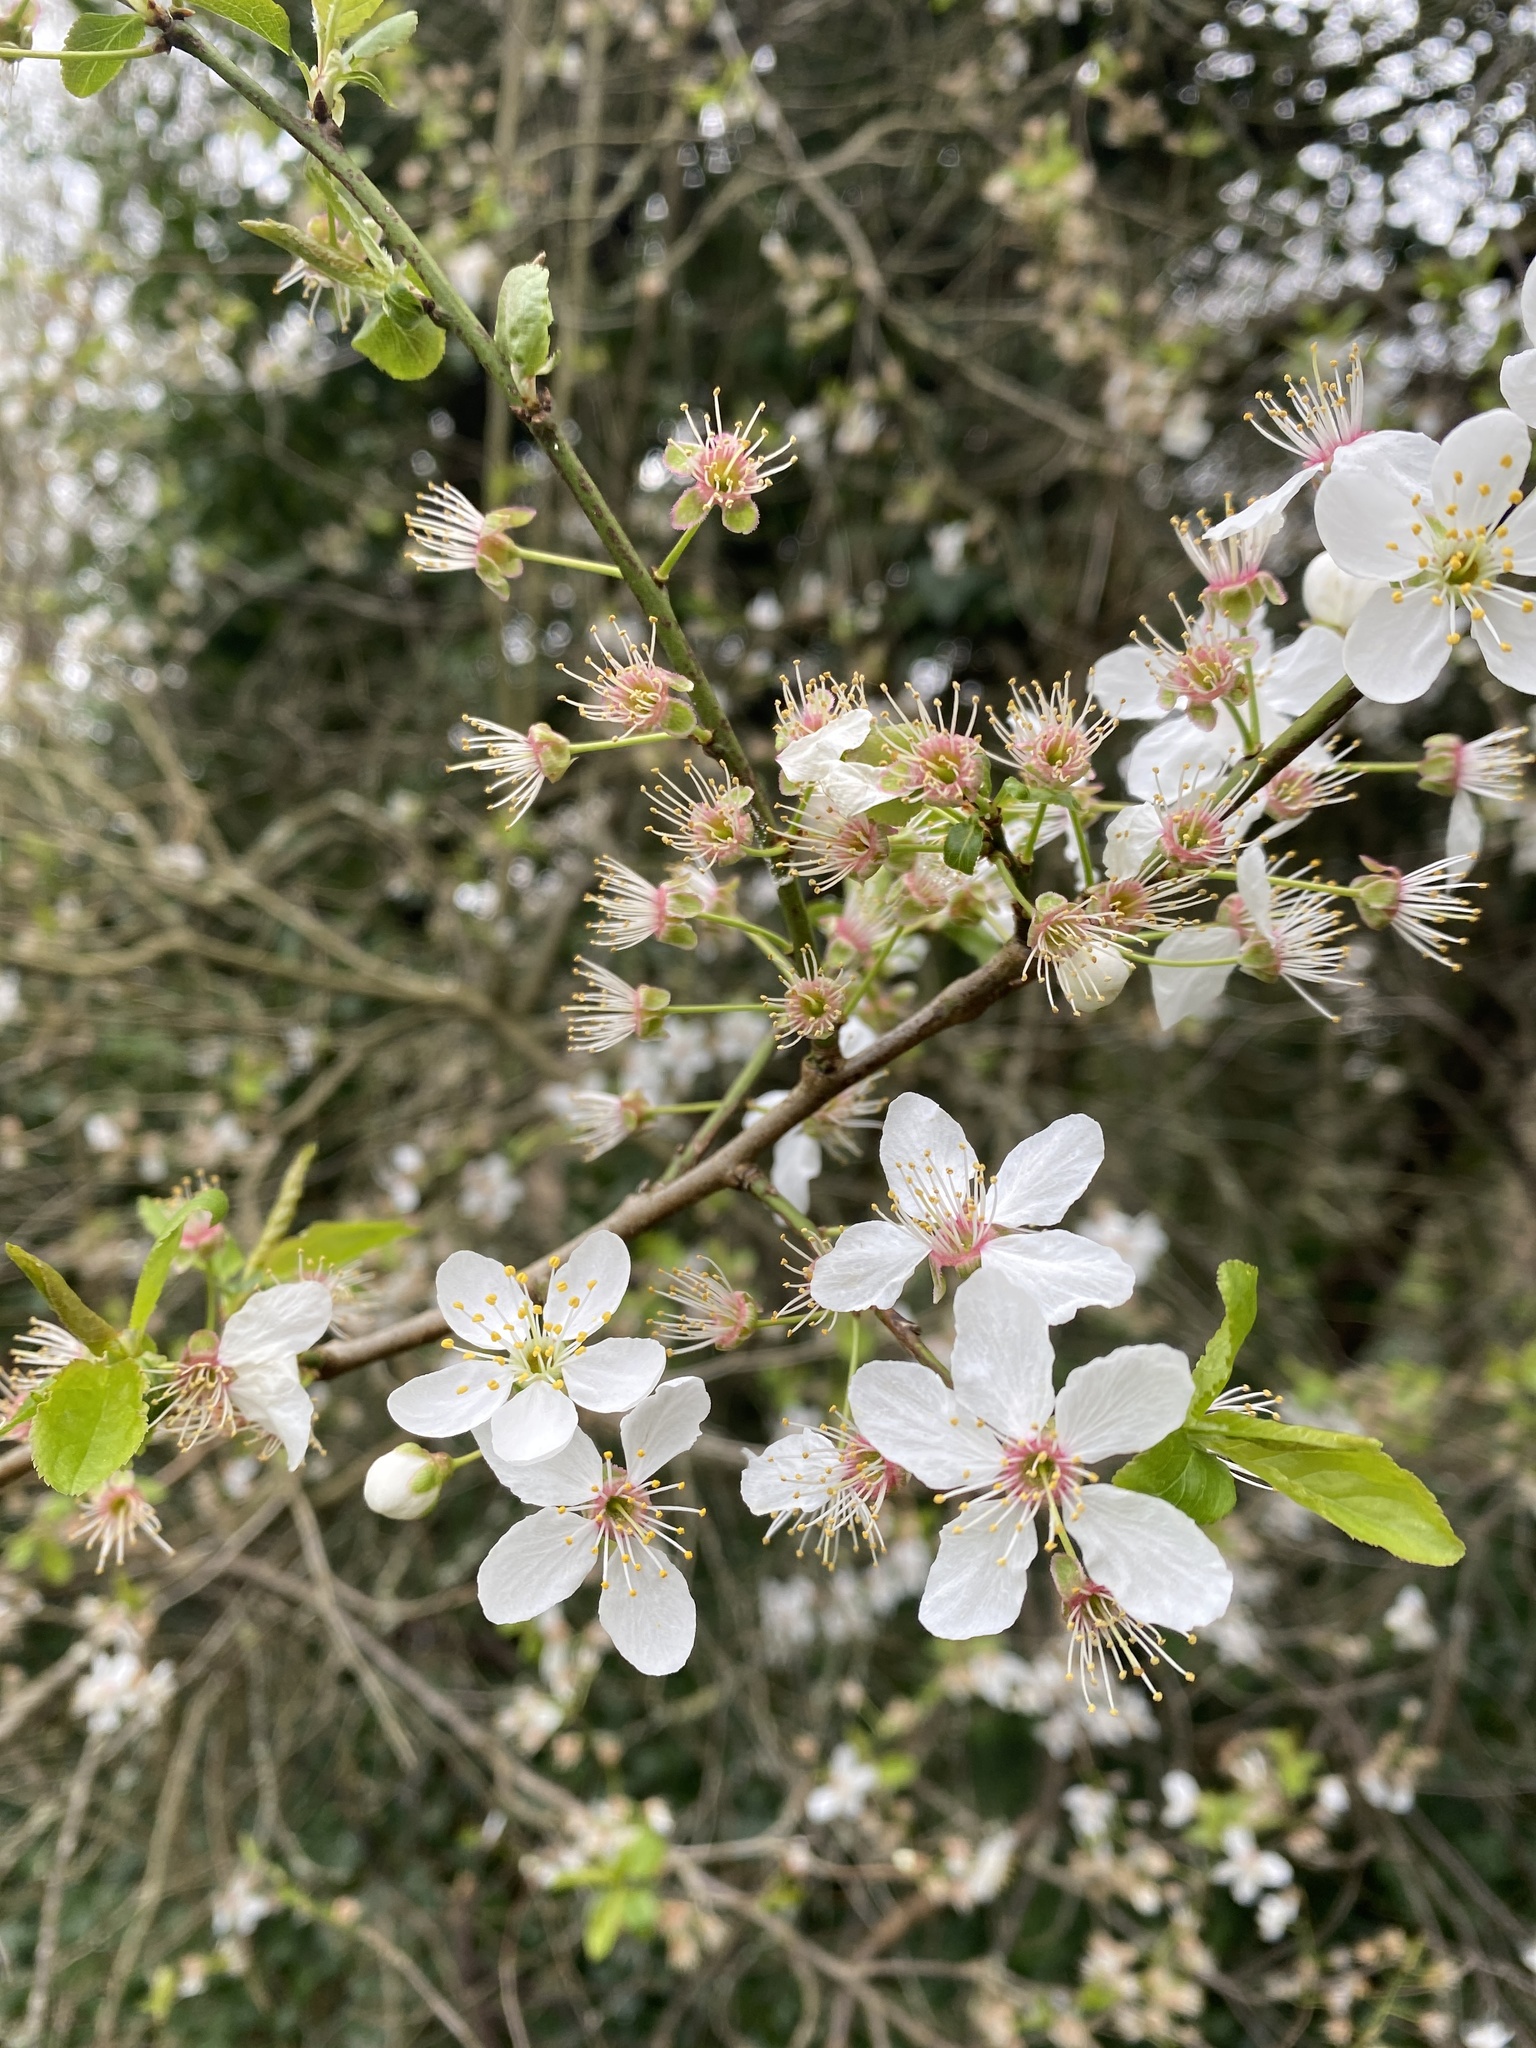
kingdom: Plantae
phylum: Tracheophyta
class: Magnoliopsida
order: Rosales
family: Rosaceae
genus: Prunus
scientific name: Prunus cerasifera
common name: Cherry plum
